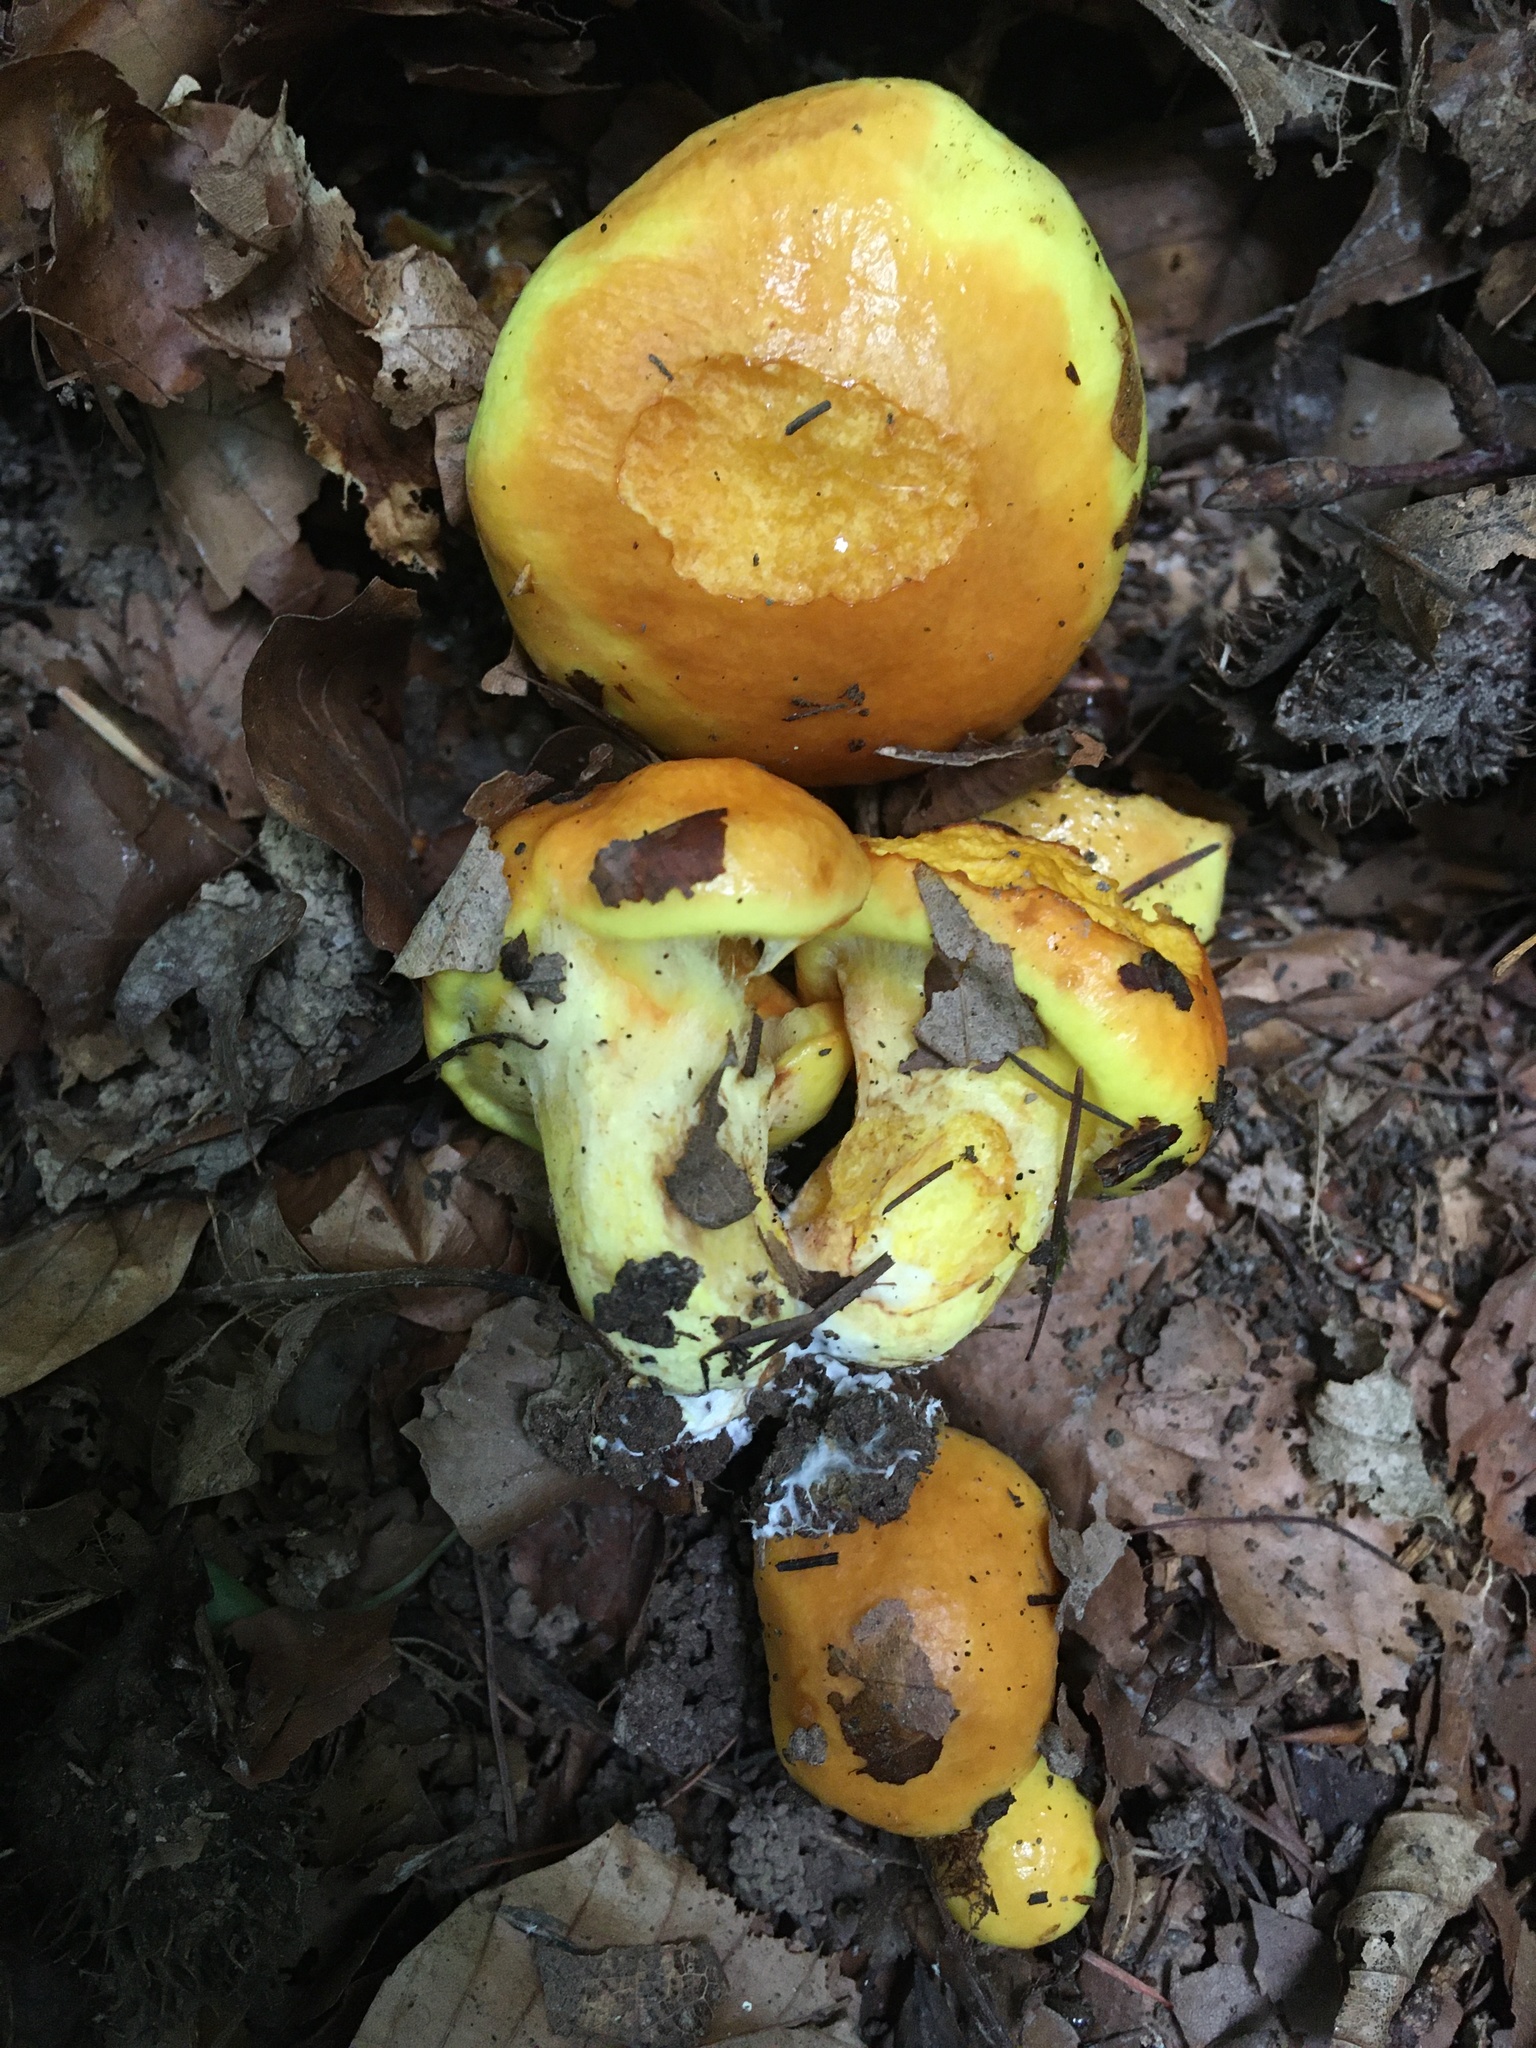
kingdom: Fungi
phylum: Basidiomycota
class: Agaricomycetes
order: Boletales
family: Suillaceae
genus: Suillus
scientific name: Suillus grevillei
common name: Larch bolete
